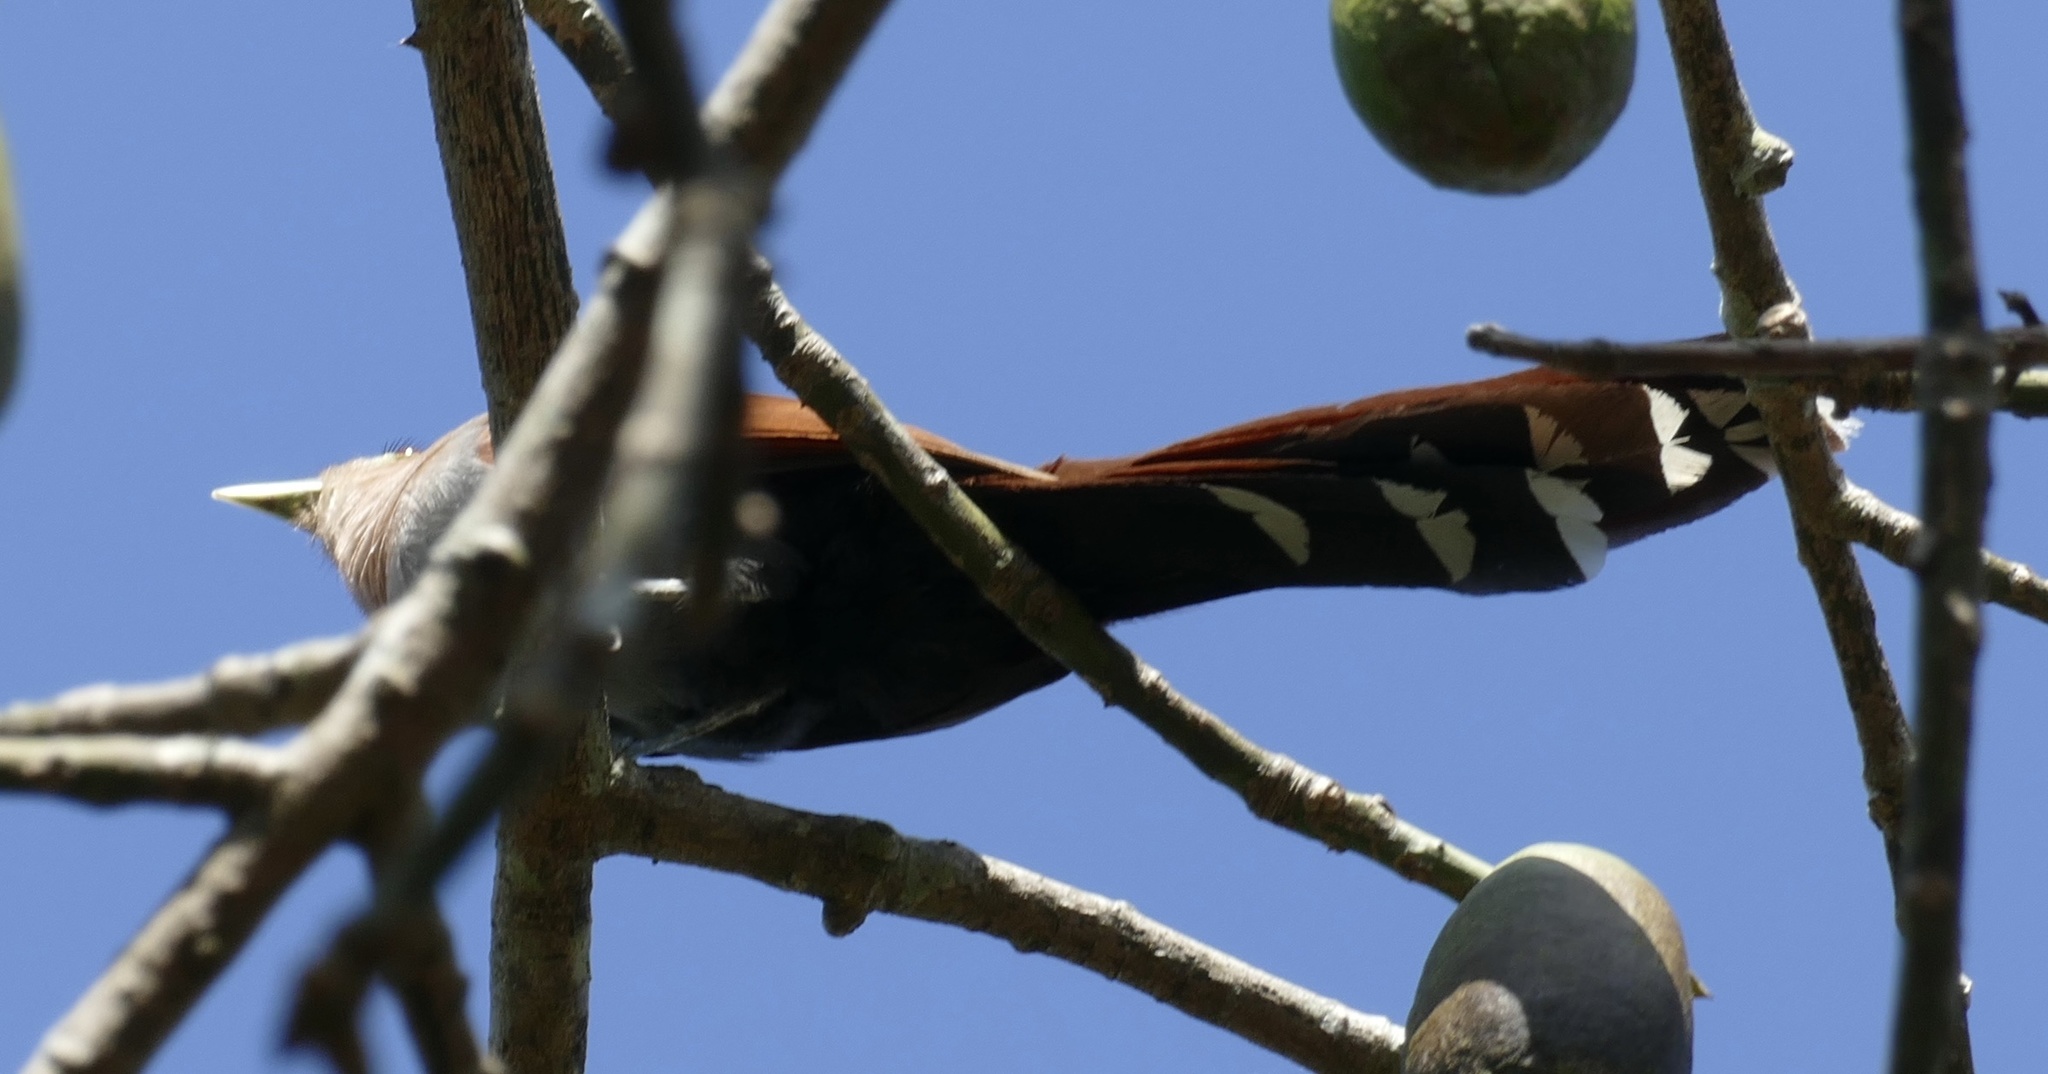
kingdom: Animalia
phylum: Chordata
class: Aves
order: Cuculiformes
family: Cuculidae
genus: Piaya
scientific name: Piaya cayana
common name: Squirrel cuckoo
